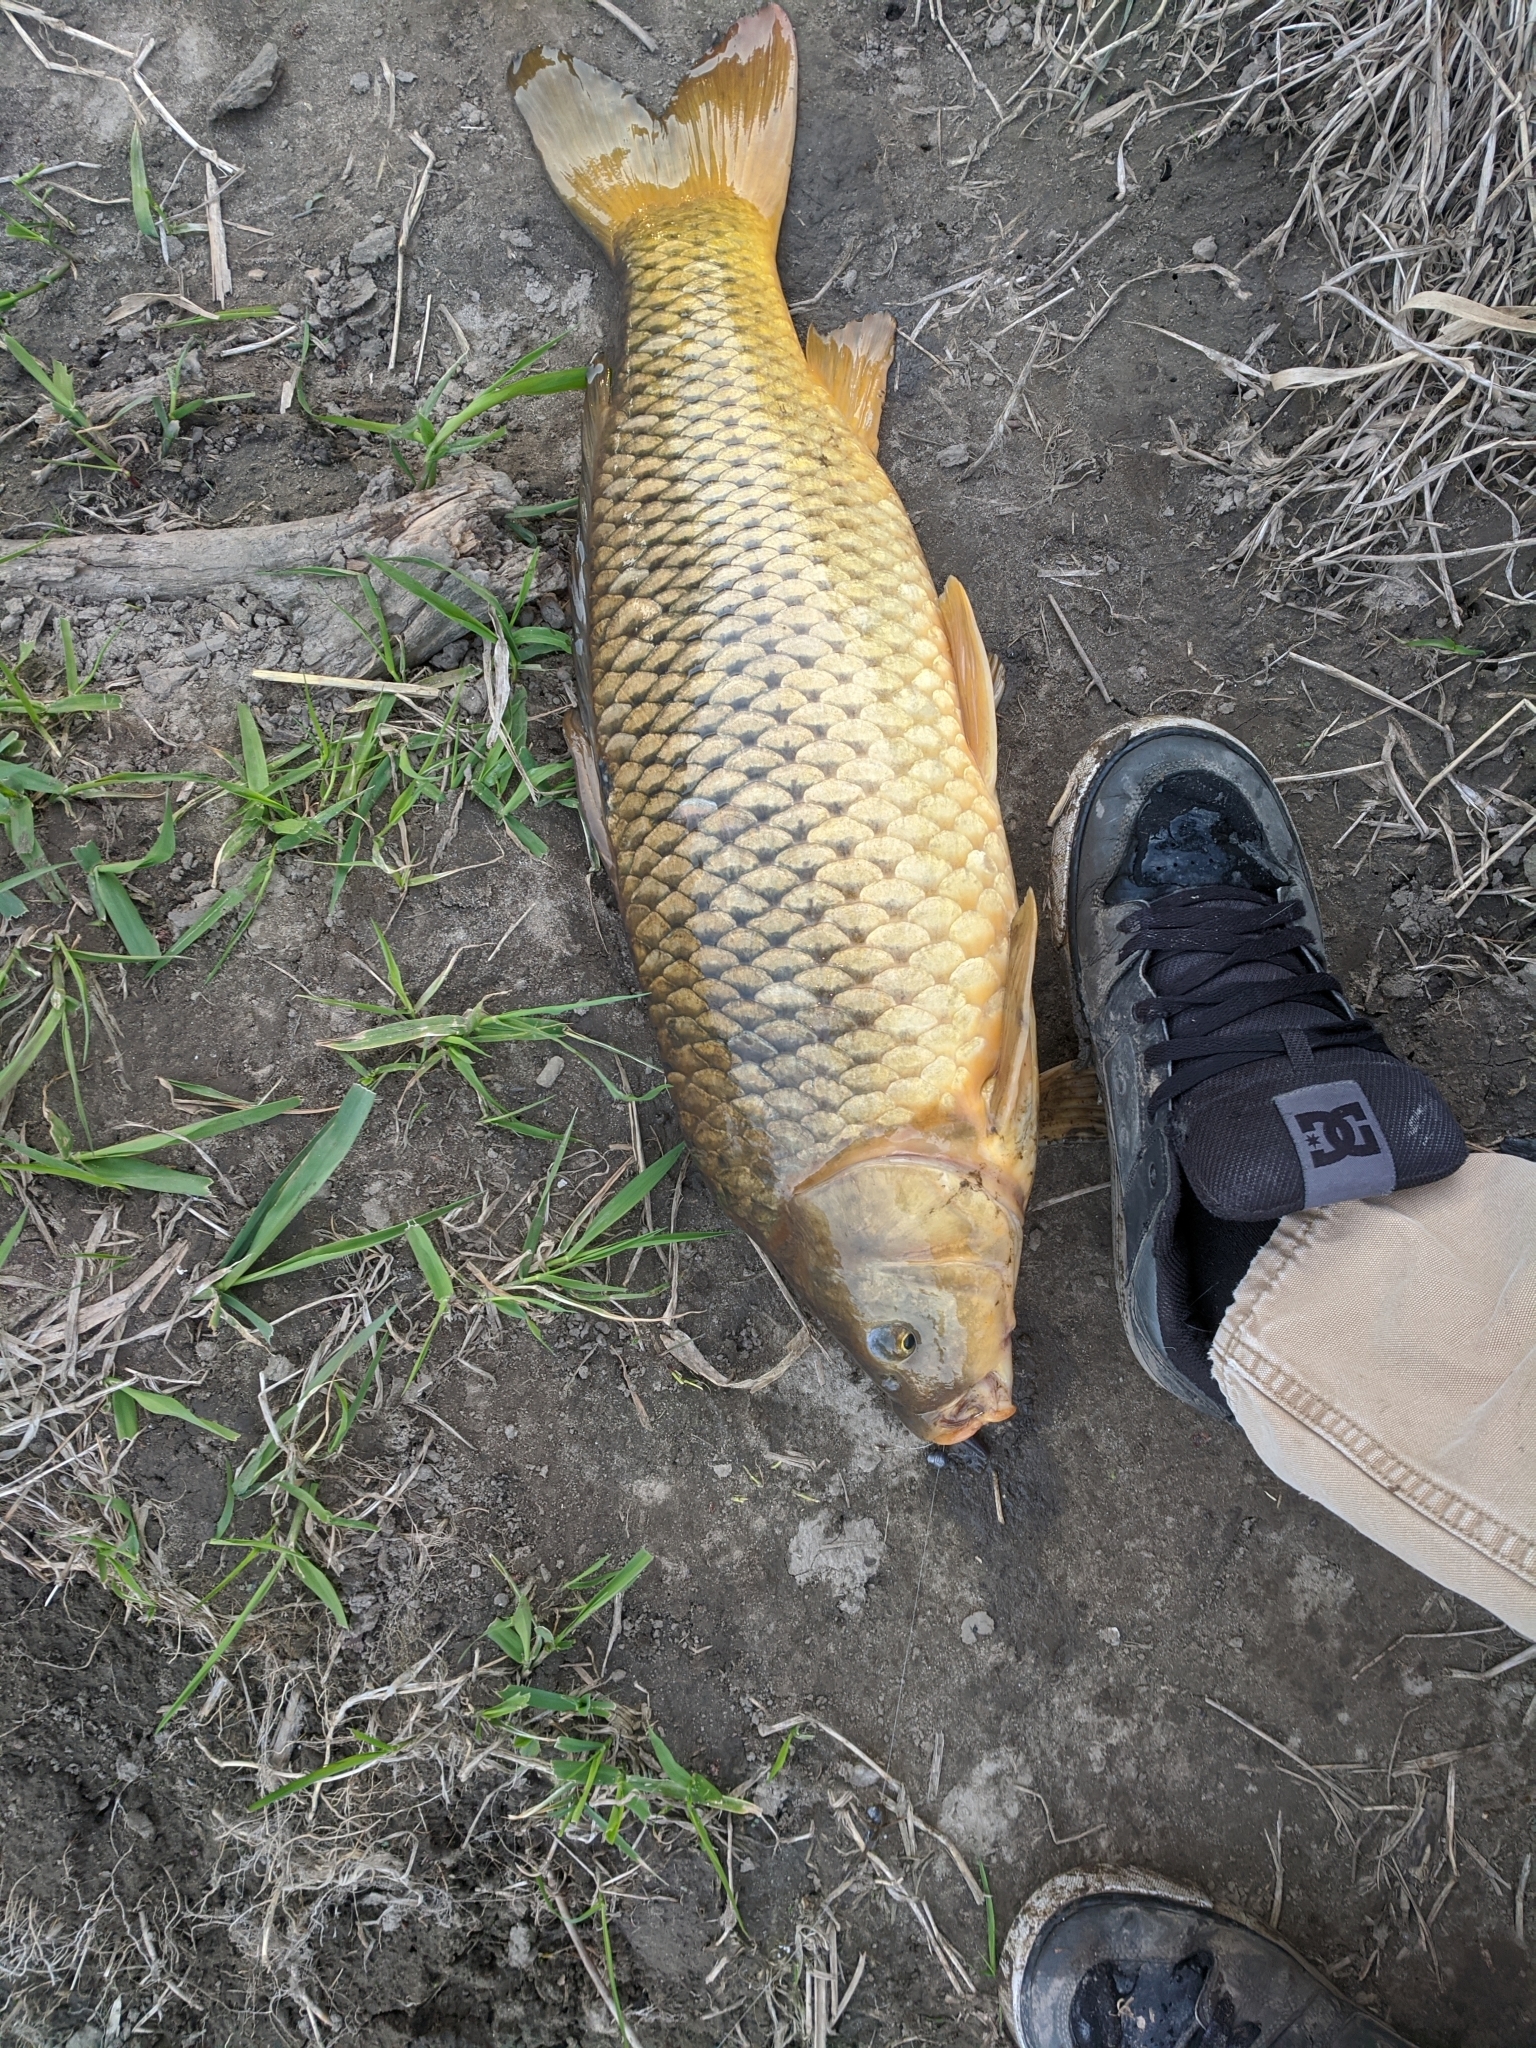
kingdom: Animalia
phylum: Chordata
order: Cypriniformes
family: Cyprinidae
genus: Cyprinus
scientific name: Cyprinus carpio
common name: Common carp
